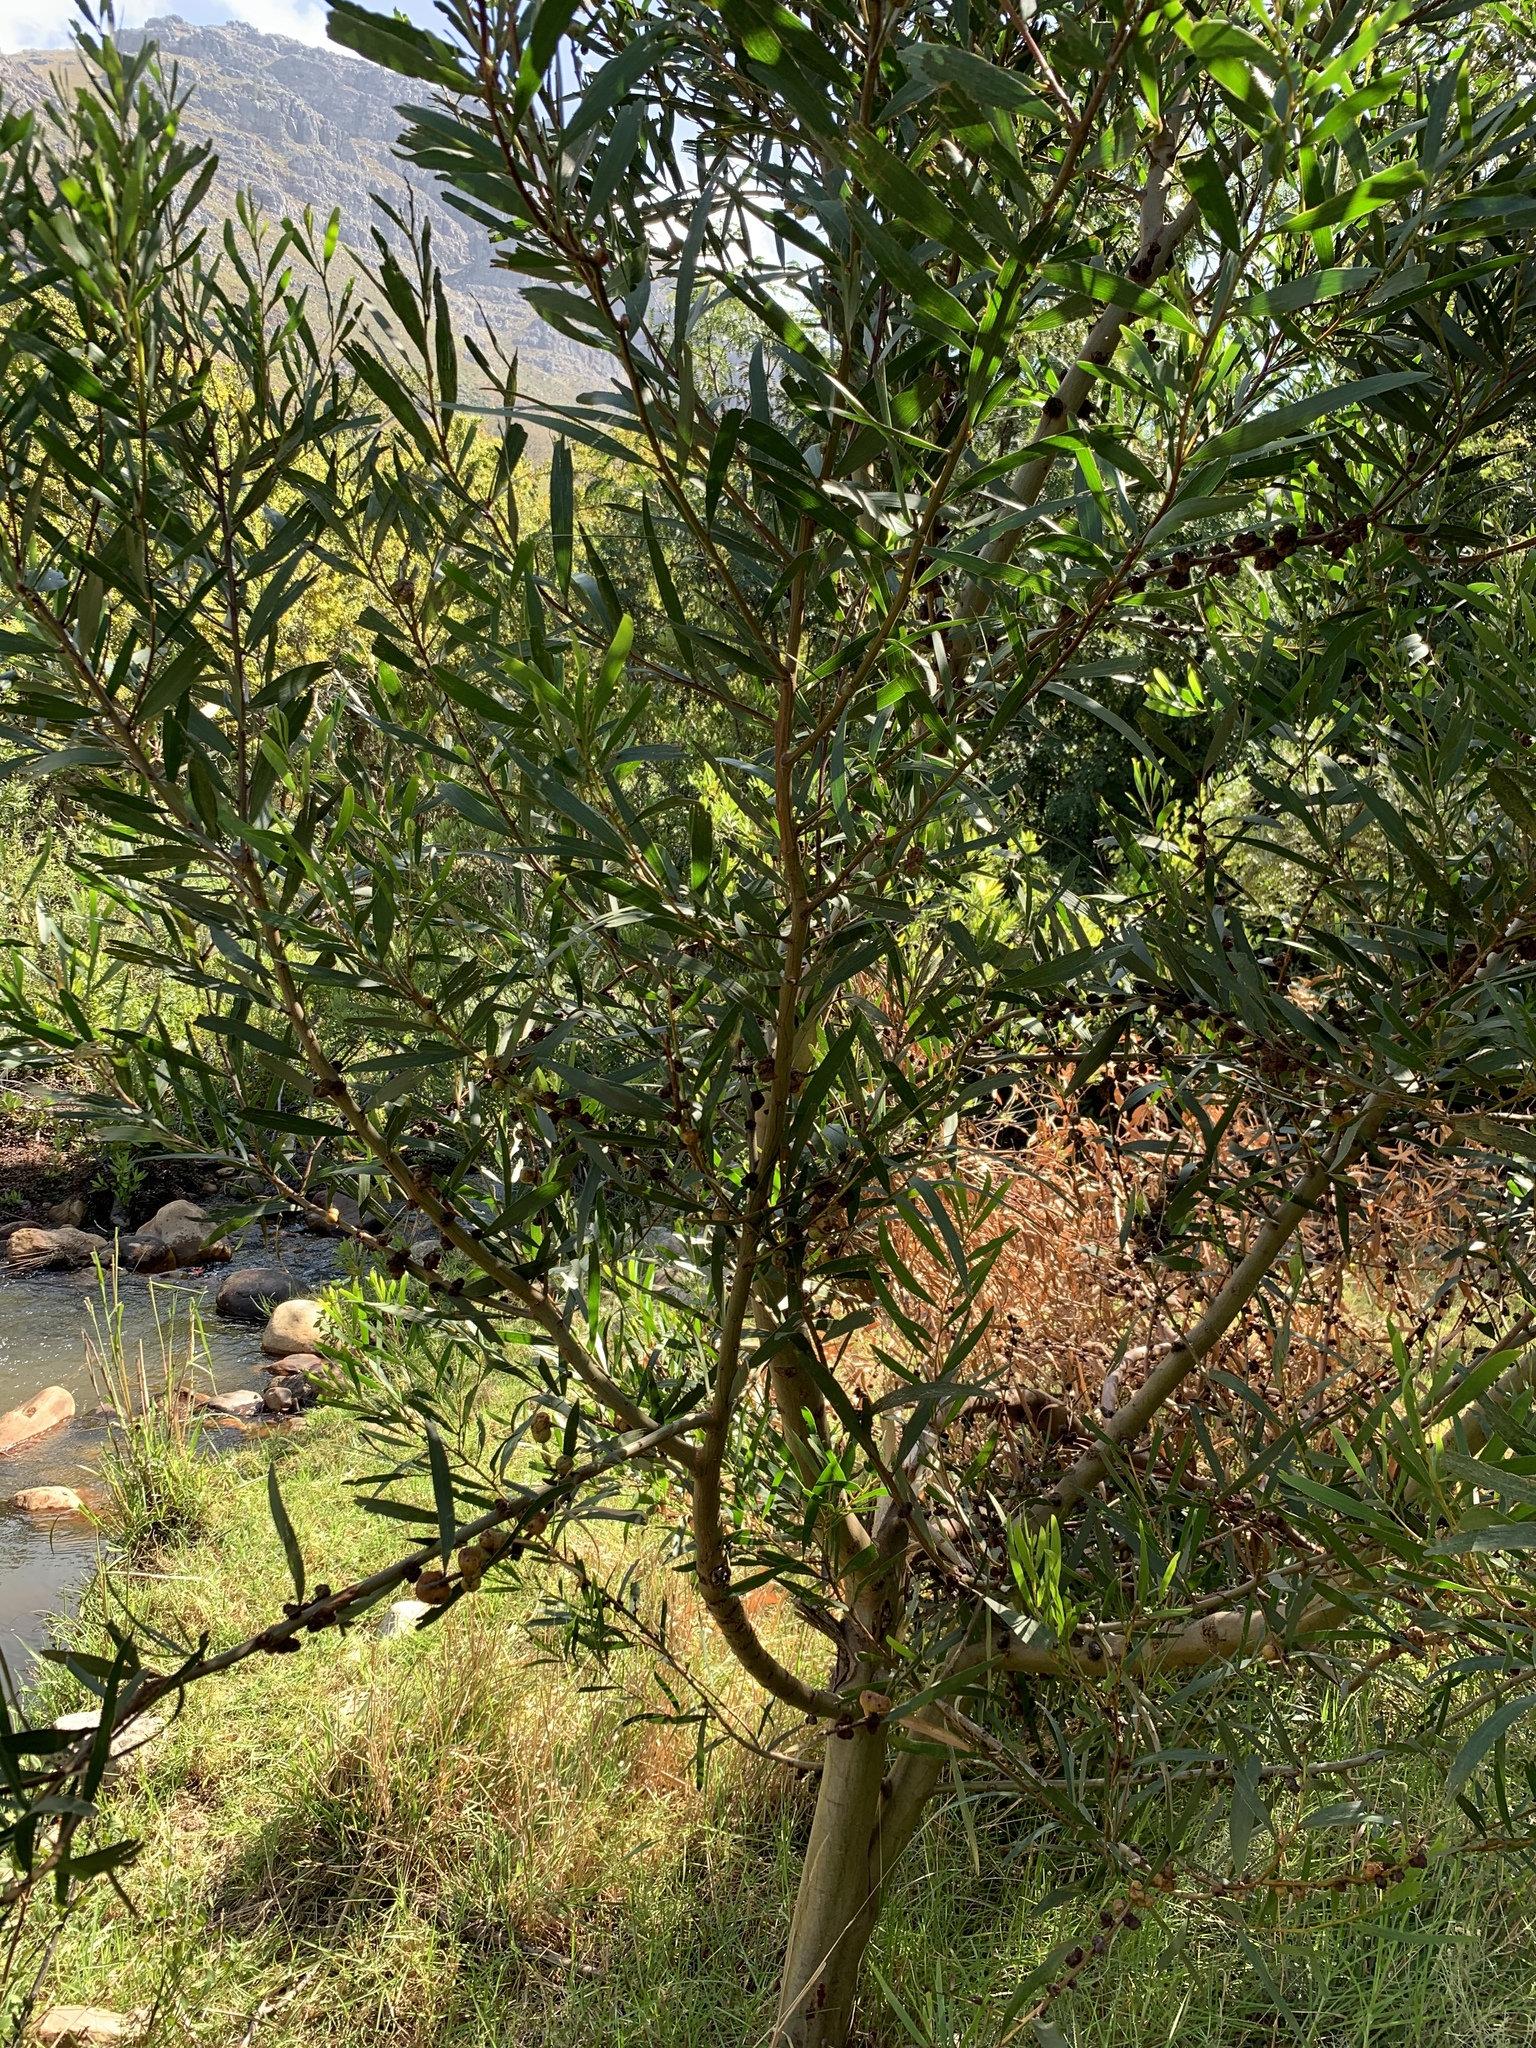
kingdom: Plantae
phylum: Tracheophyta
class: Magnoliopsida
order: Fabales
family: Fabaceae
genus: Acacia
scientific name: Acacia longifolia
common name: Sydney golden wattle
